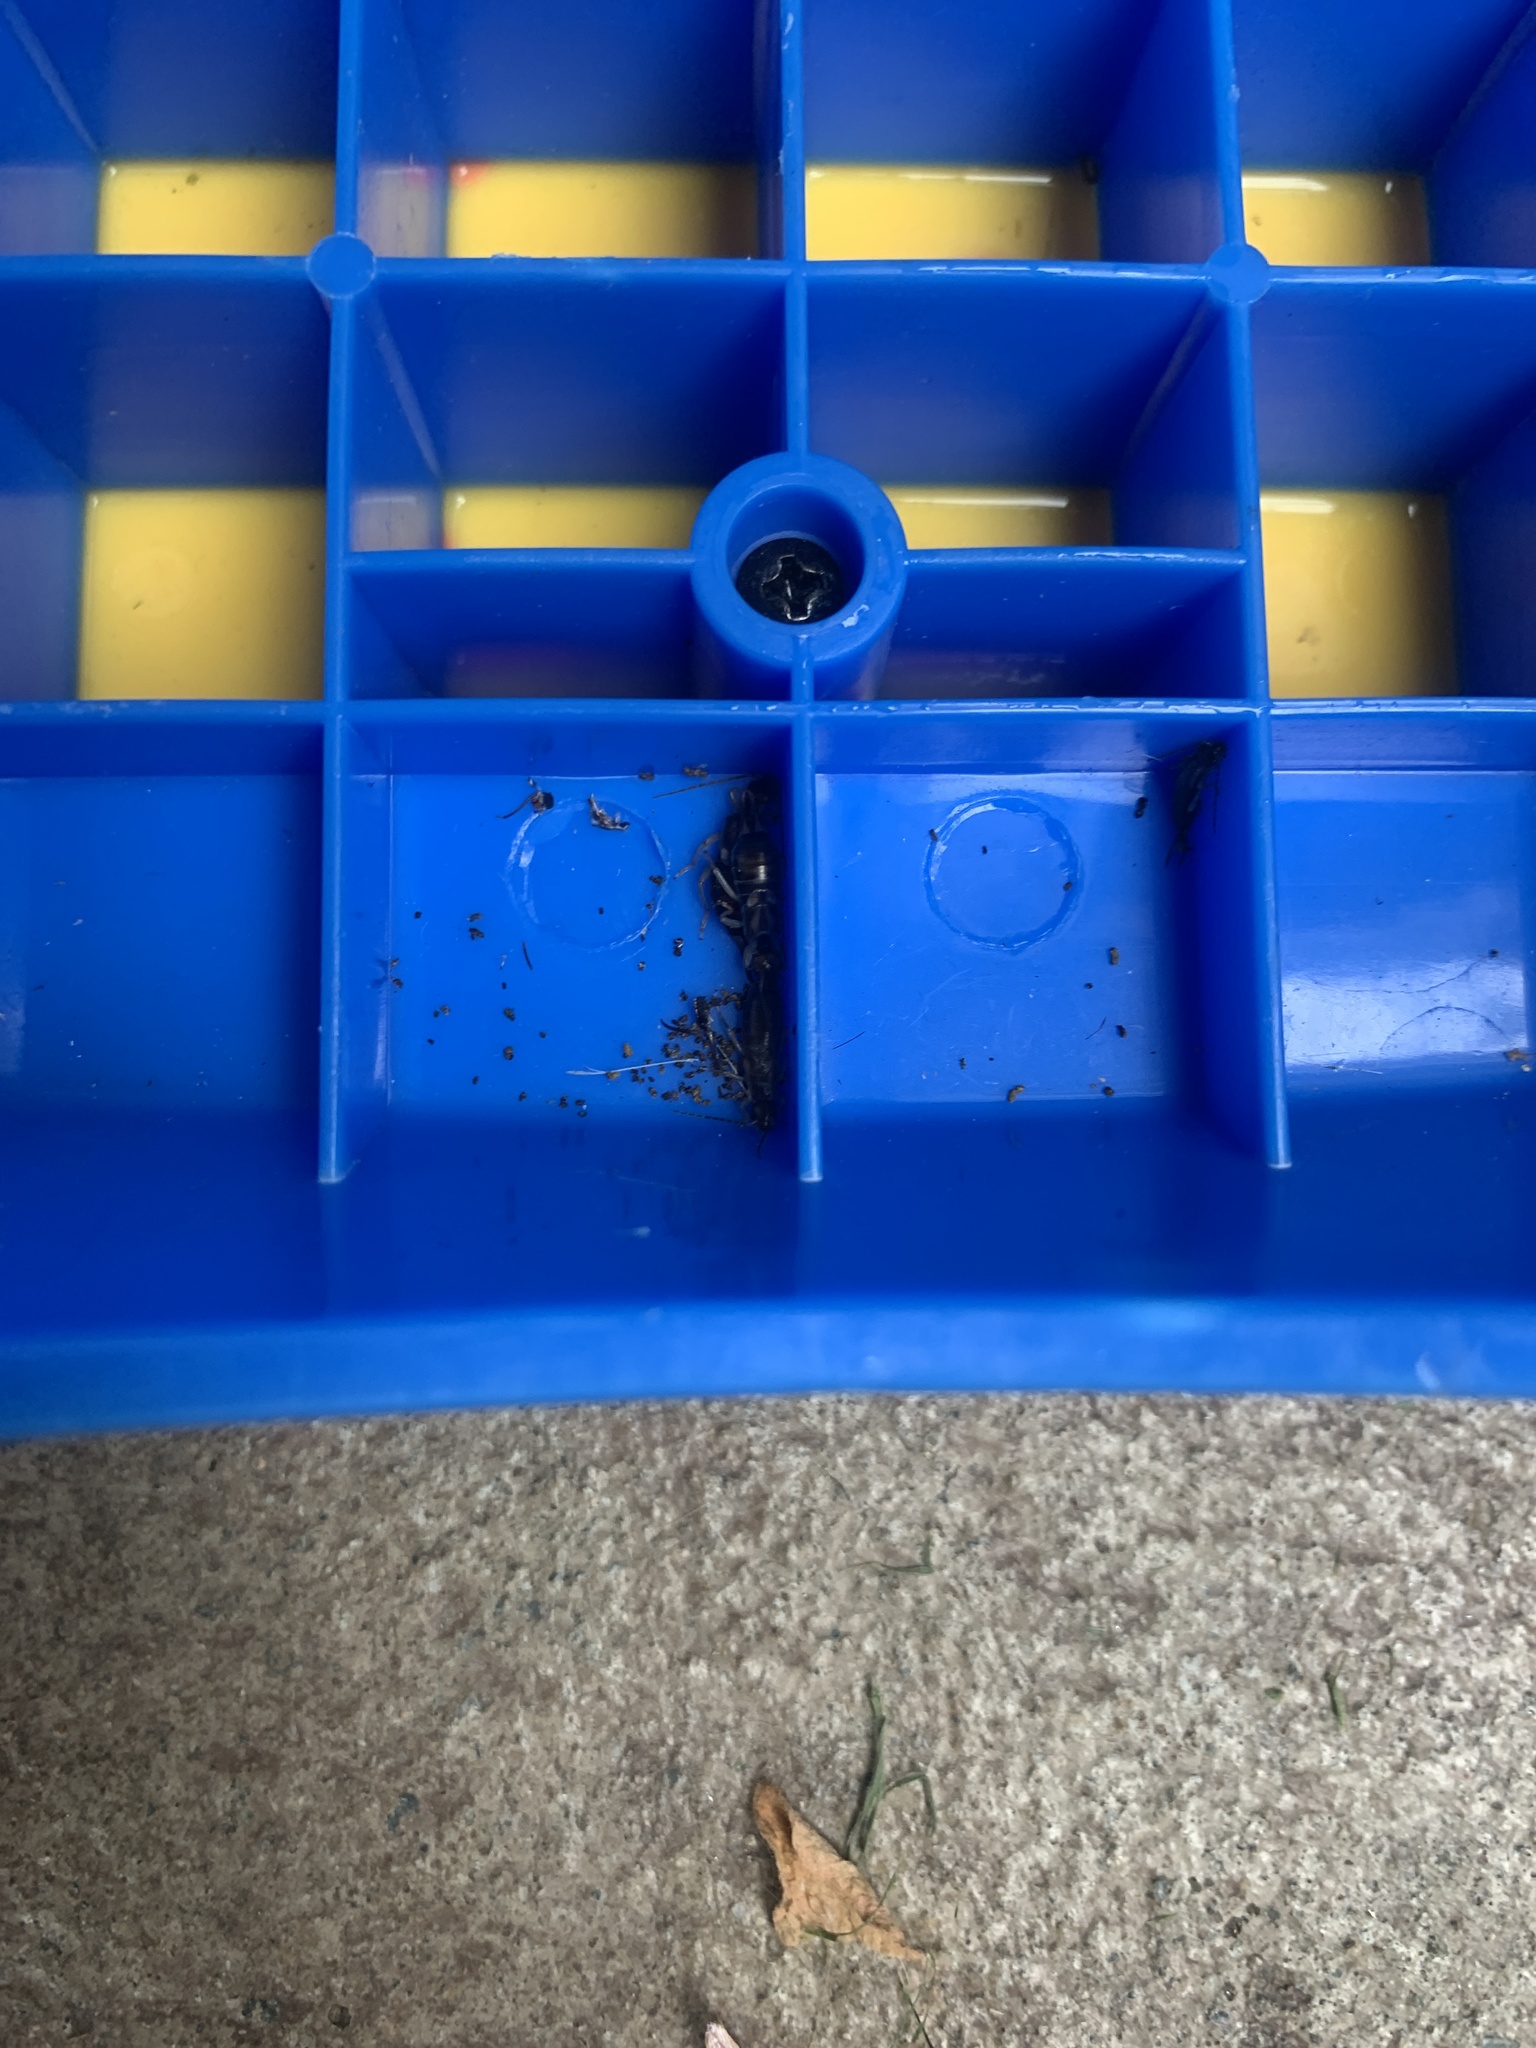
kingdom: Animalia
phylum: Arthropoda
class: Insecta
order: Dermaptera
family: Forficulidae
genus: Forficula
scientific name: Forficula
